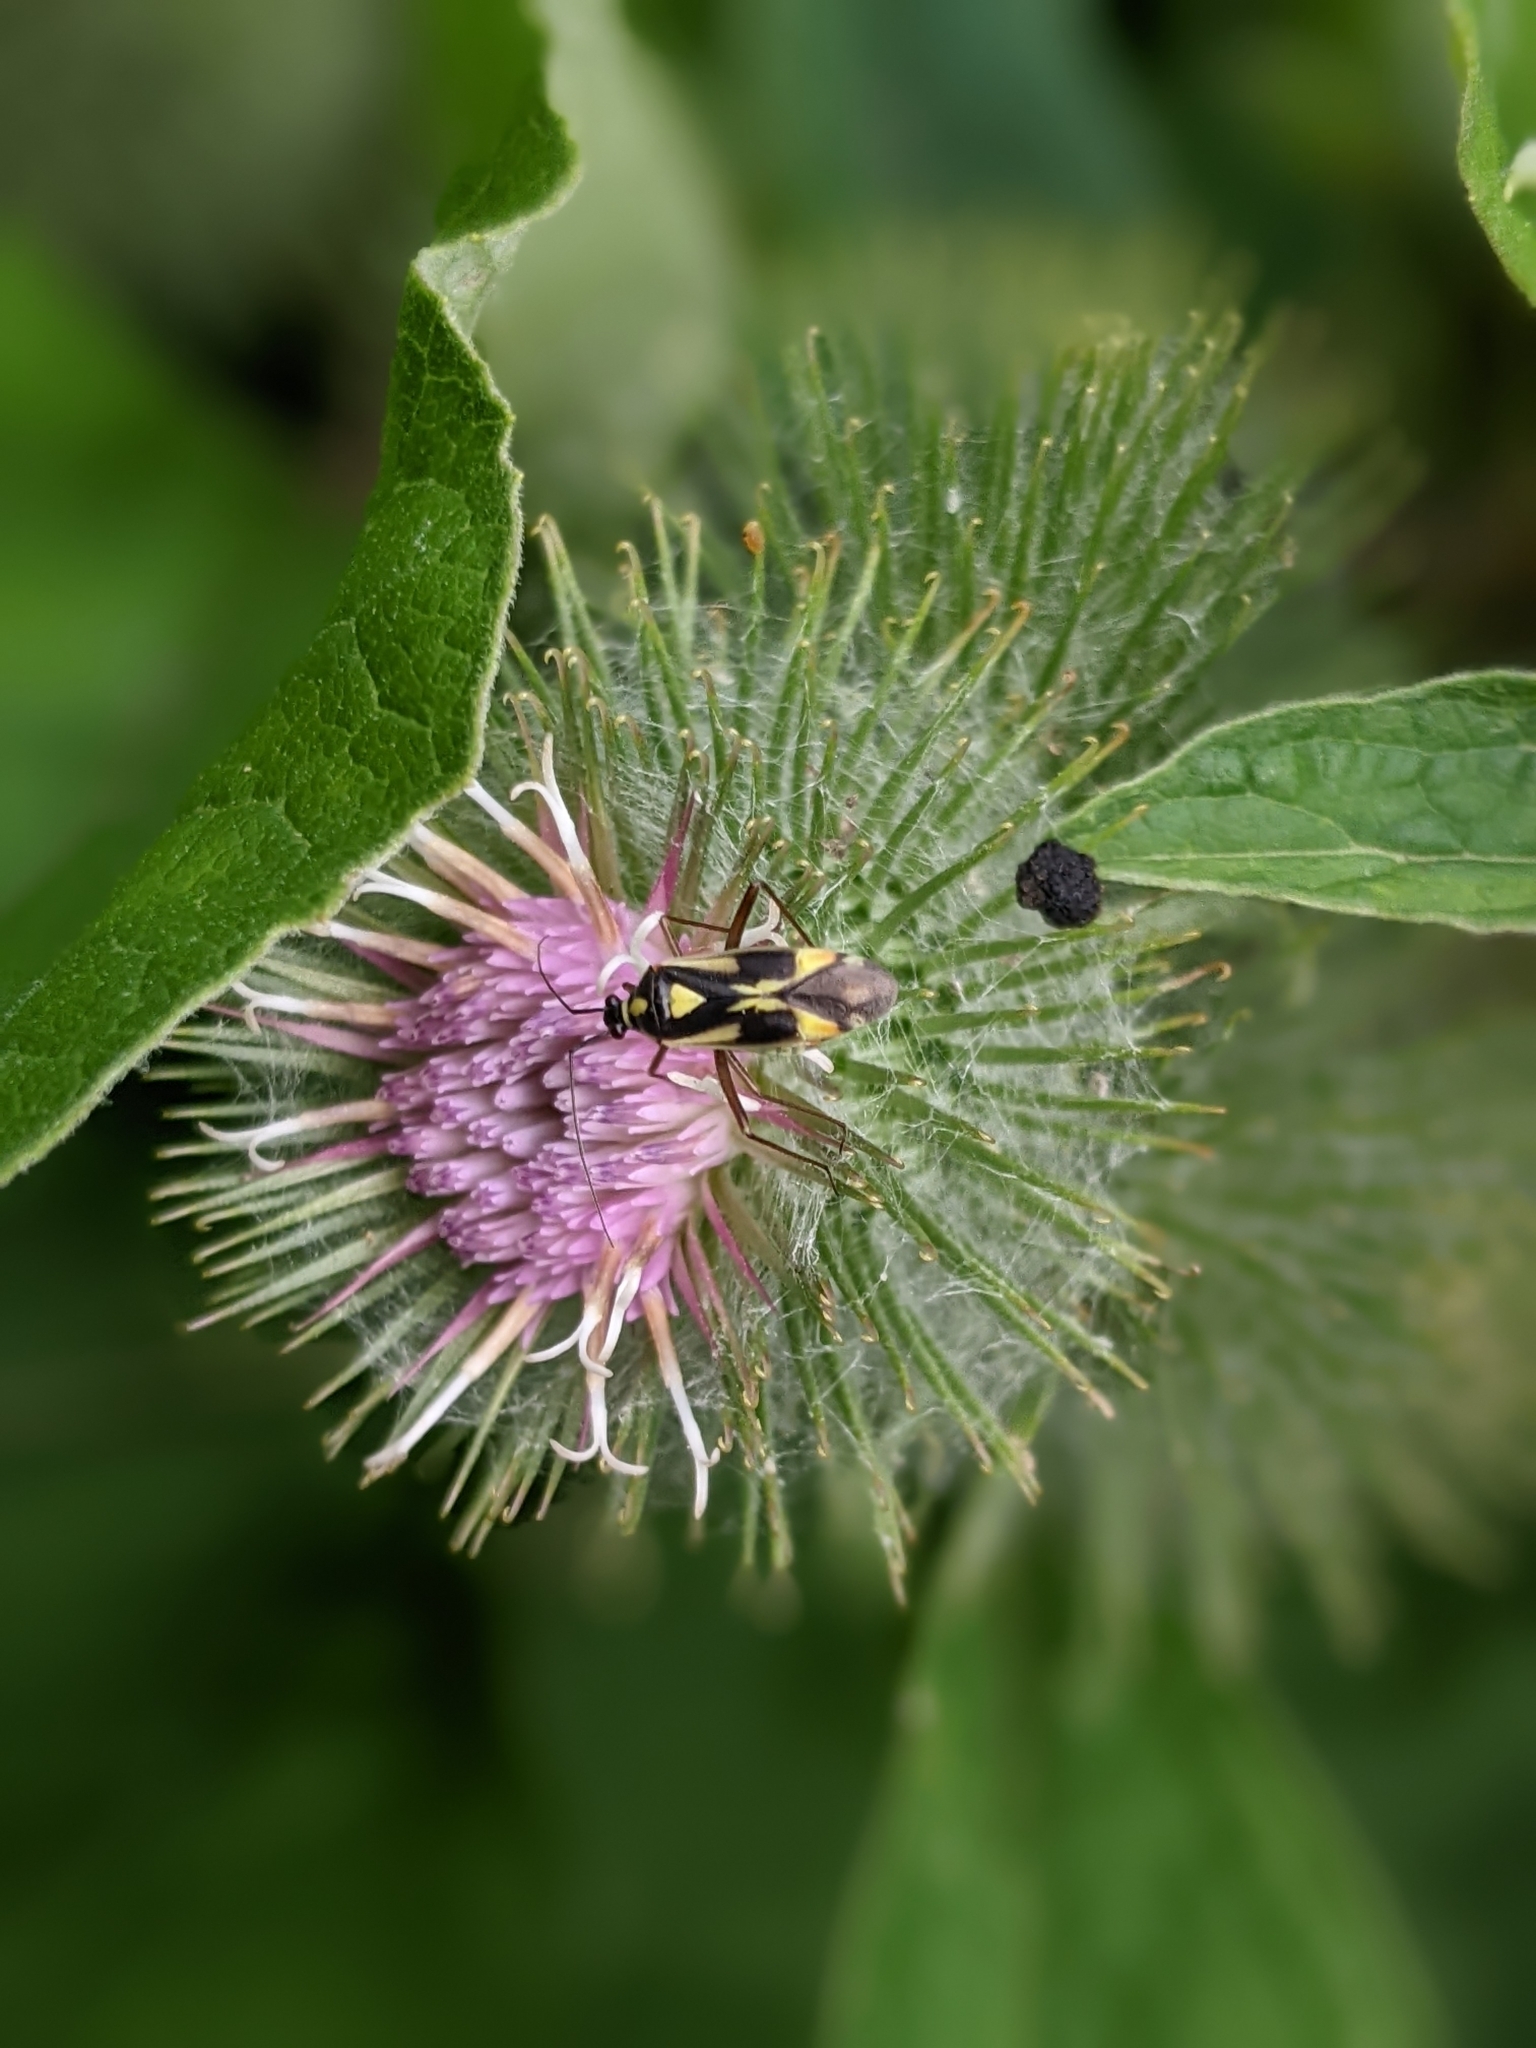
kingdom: Animalia
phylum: Arthropoda
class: Insecta
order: Hemiptera
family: Miridae
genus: Grypocoris
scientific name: Grypocoris stysi
